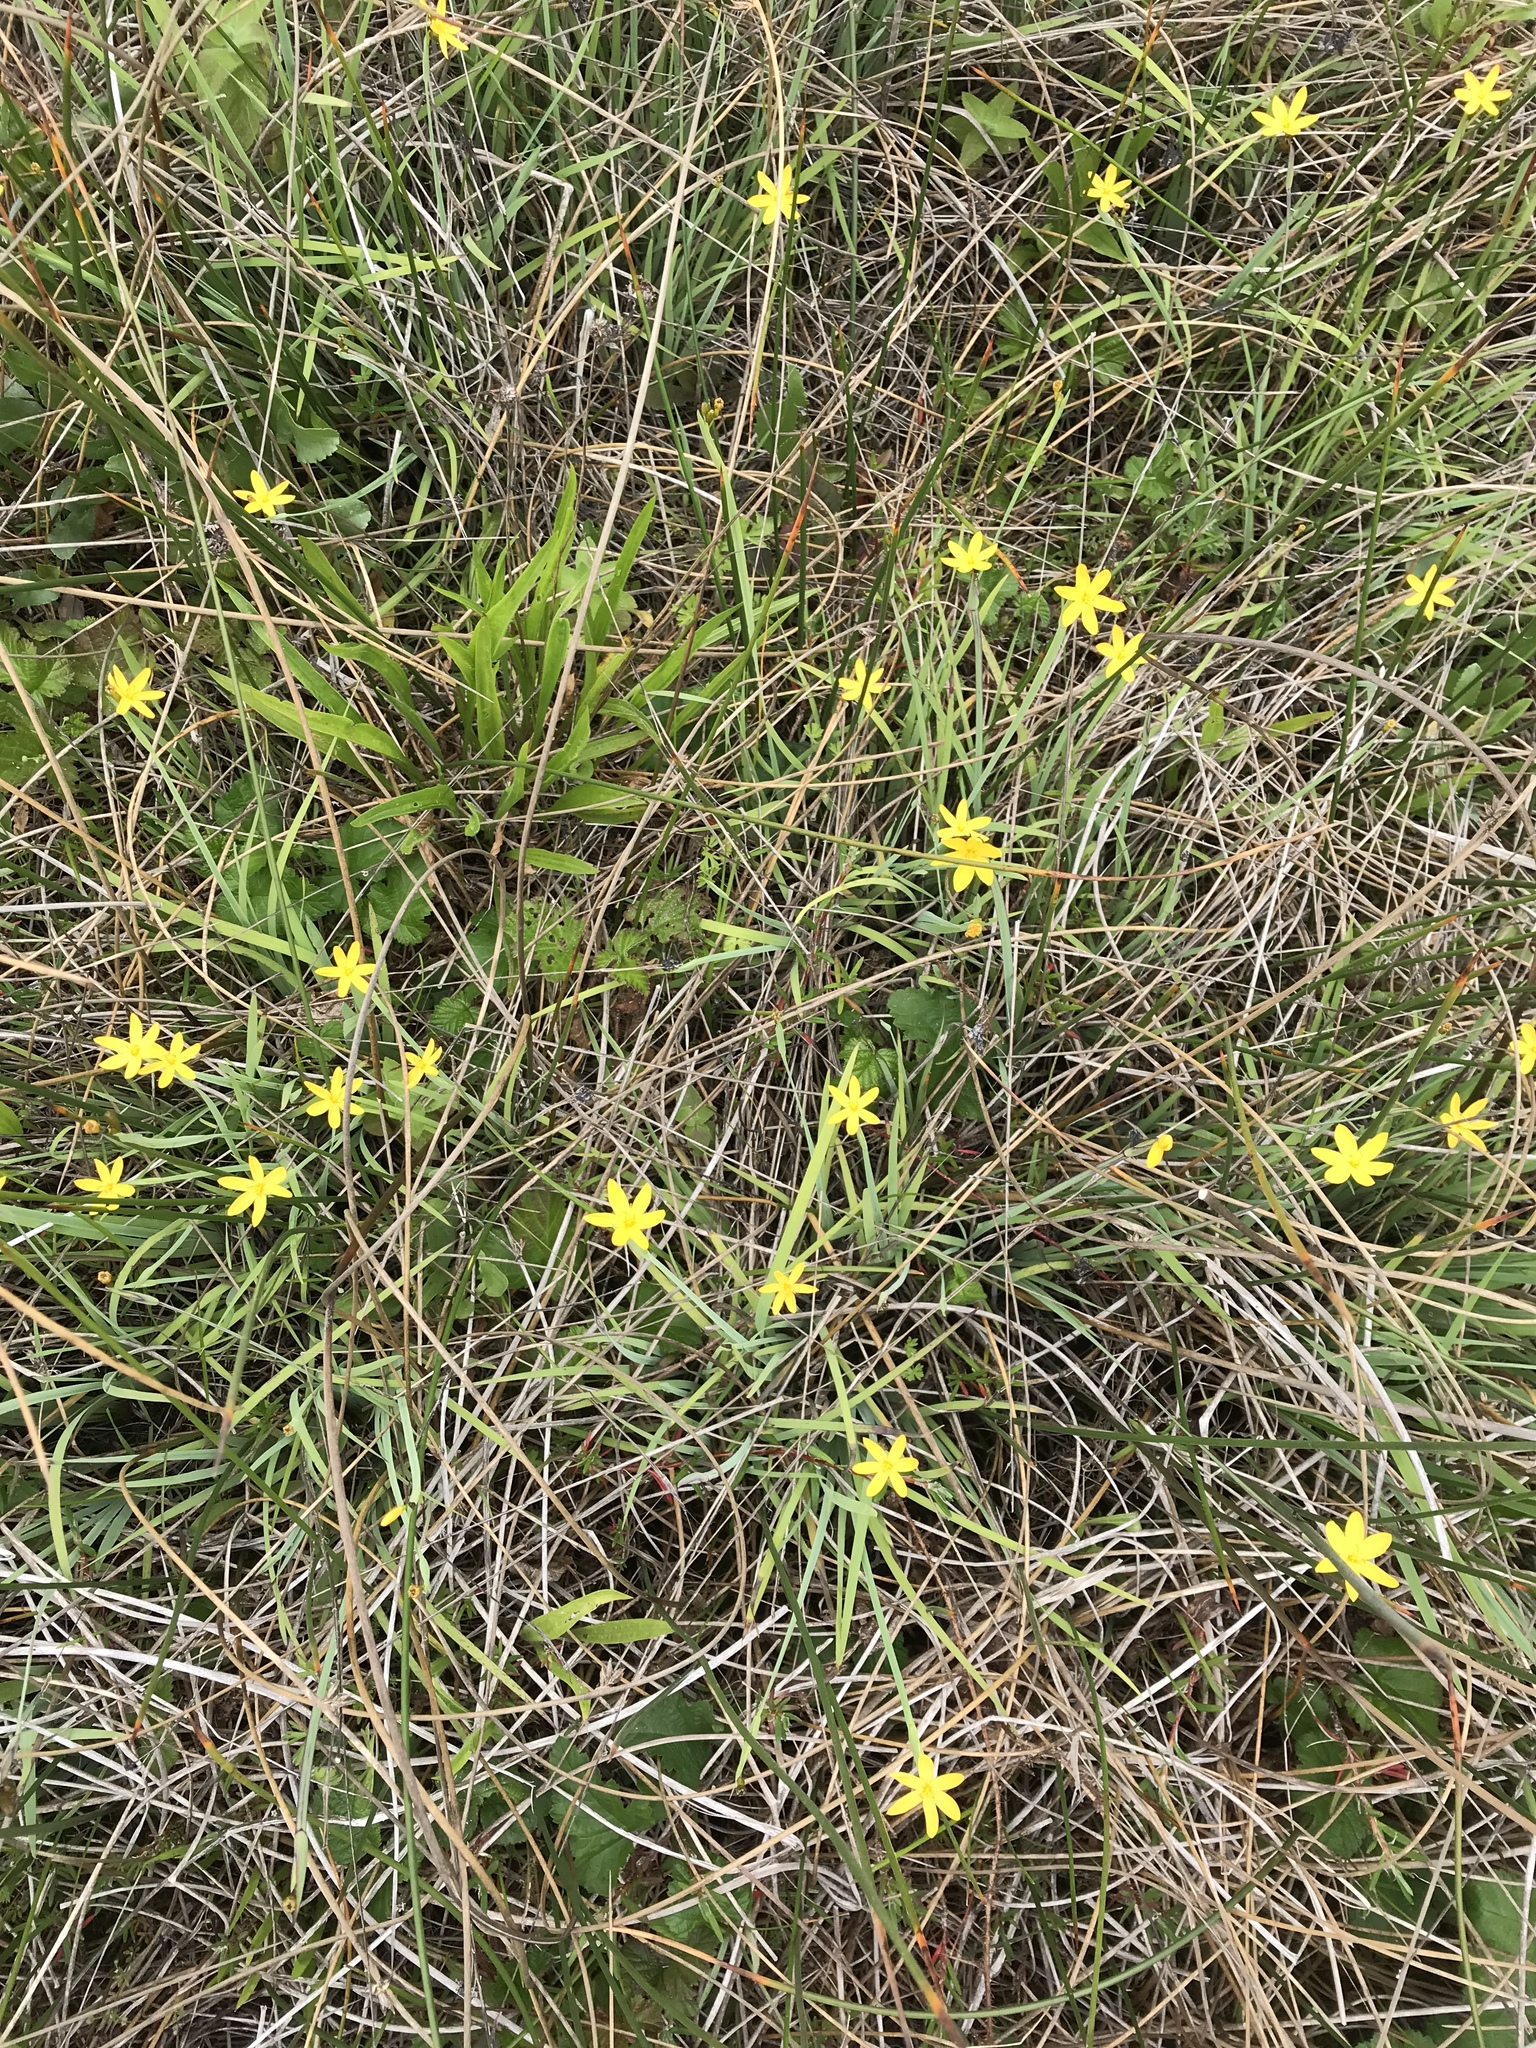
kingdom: Plantae
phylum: Tracheophyta
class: Liliopsida
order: Asparagales
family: Iridaceae
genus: Sisyrinchium
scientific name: Sisyrinchium californicum
